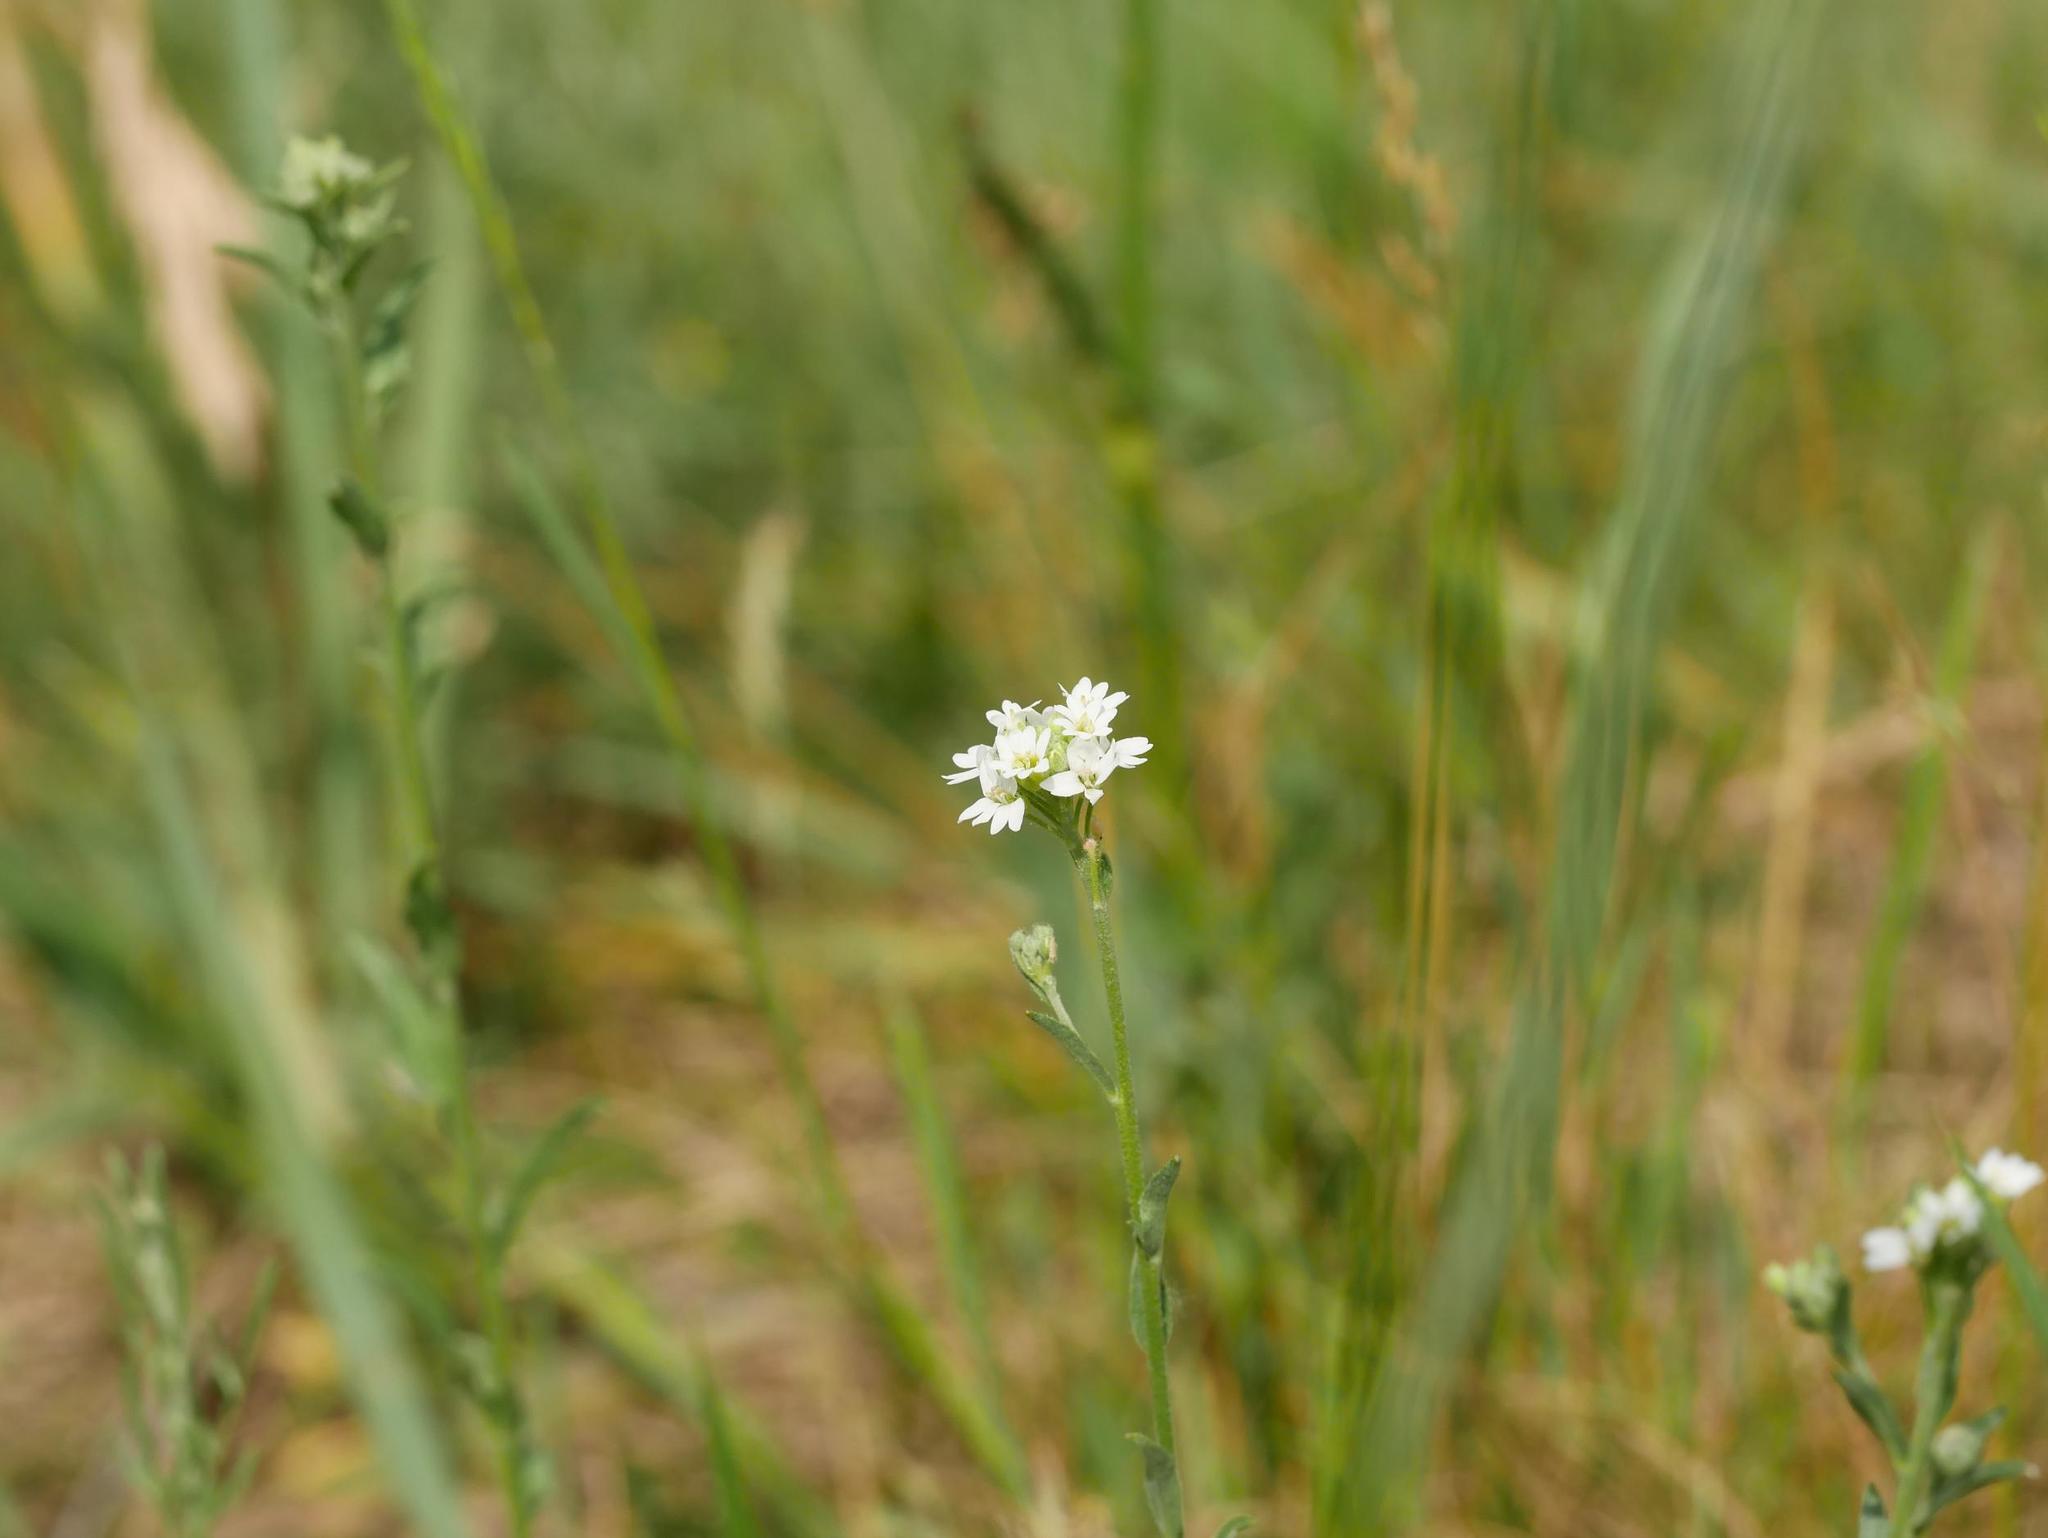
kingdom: Plantae
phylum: Tracheophyta
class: Magnoliopsida
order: Brassicales
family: Brassicaceae
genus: Berteroa
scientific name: Berteroa incana
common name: Hoary alison
